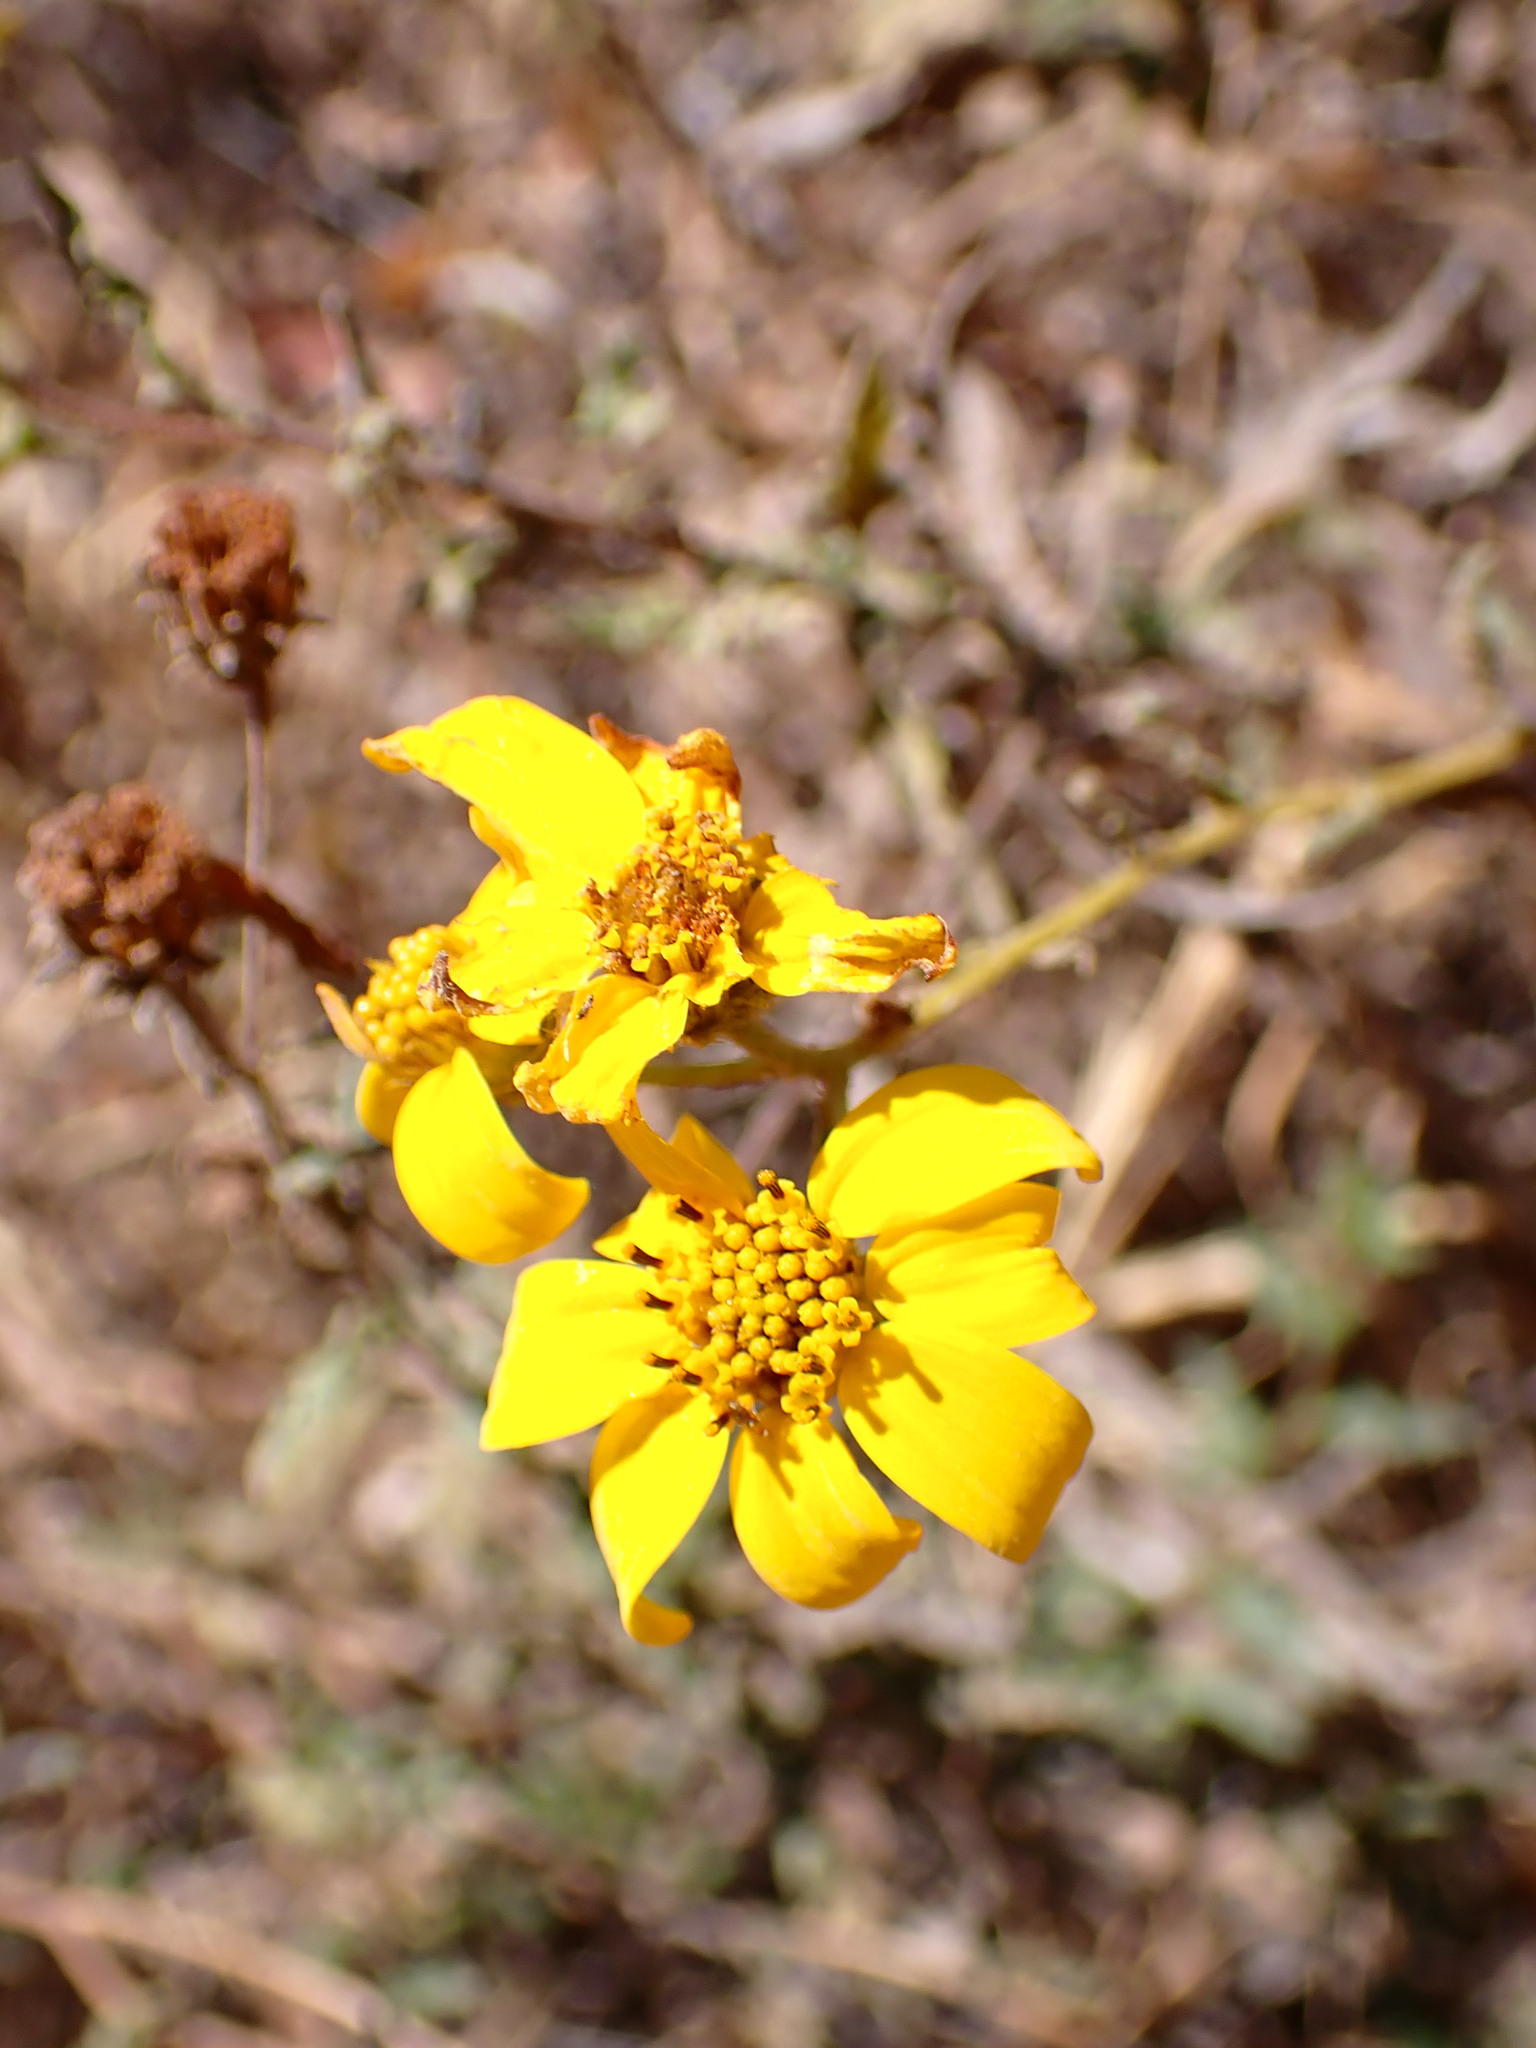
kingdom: Plantae
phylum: Tracheophyta
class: Magnoliopsida
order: Asterales
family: Asteraceae
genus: Bahiopsis
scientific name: Bahiopsis laciniata
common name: San diego county viguiera
